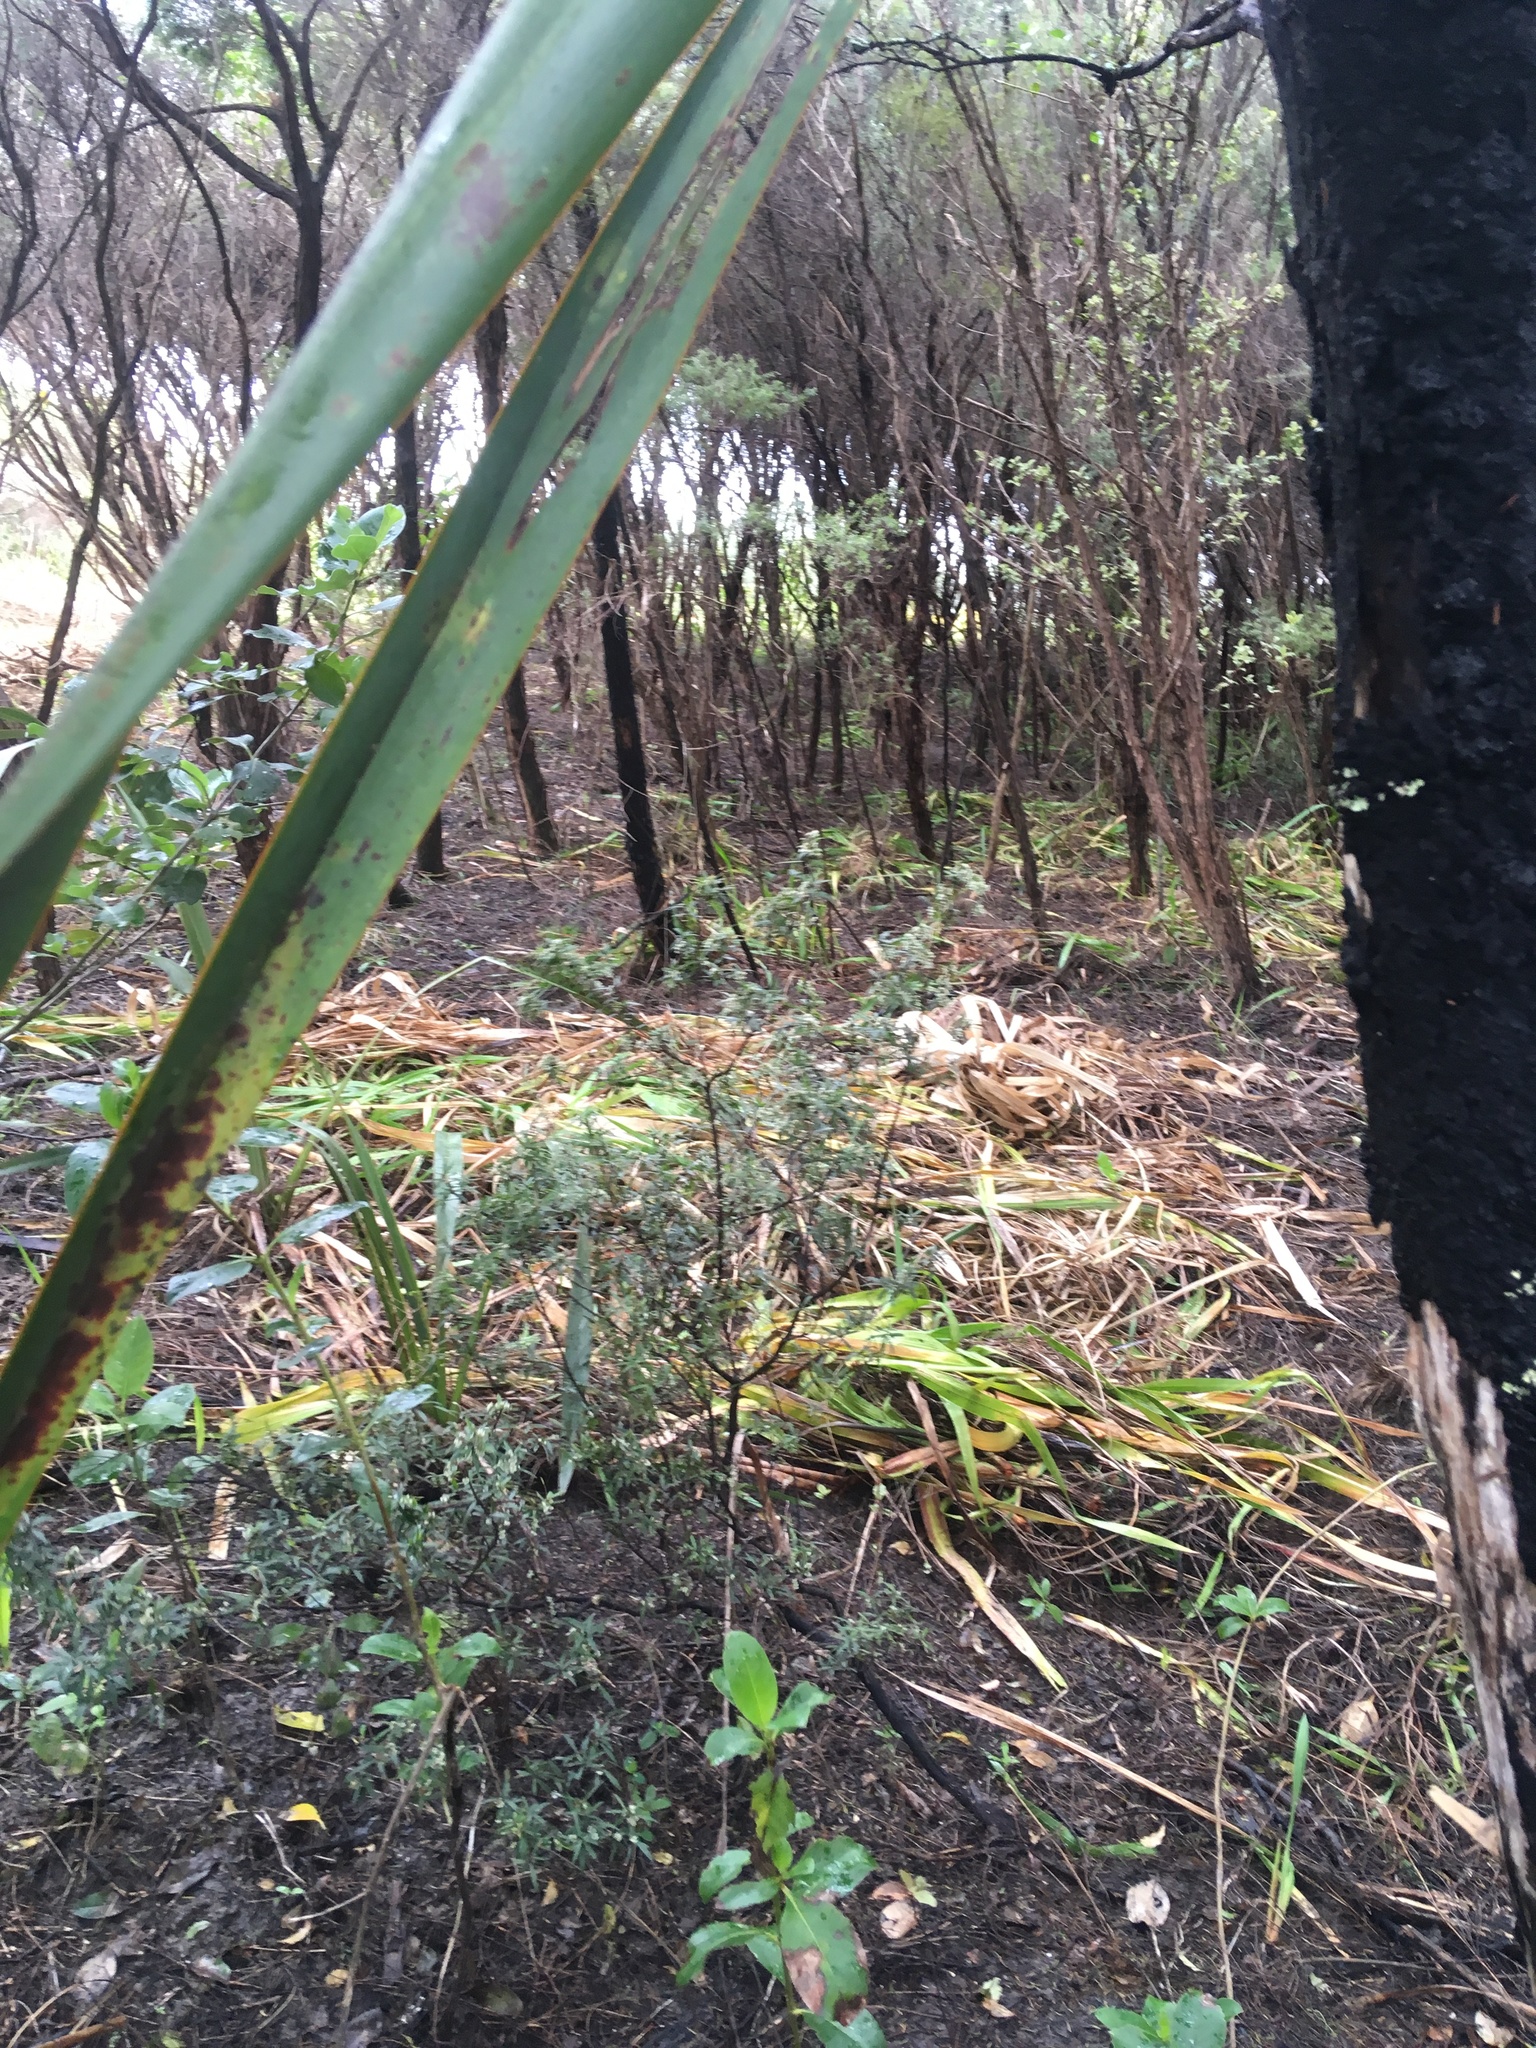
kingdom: Plantae
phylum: Tracheophyta
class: Magnoliopsida
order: Ericales
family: Ericaceae
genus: Leucopogon
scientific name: Leucopogon fasciculatus
